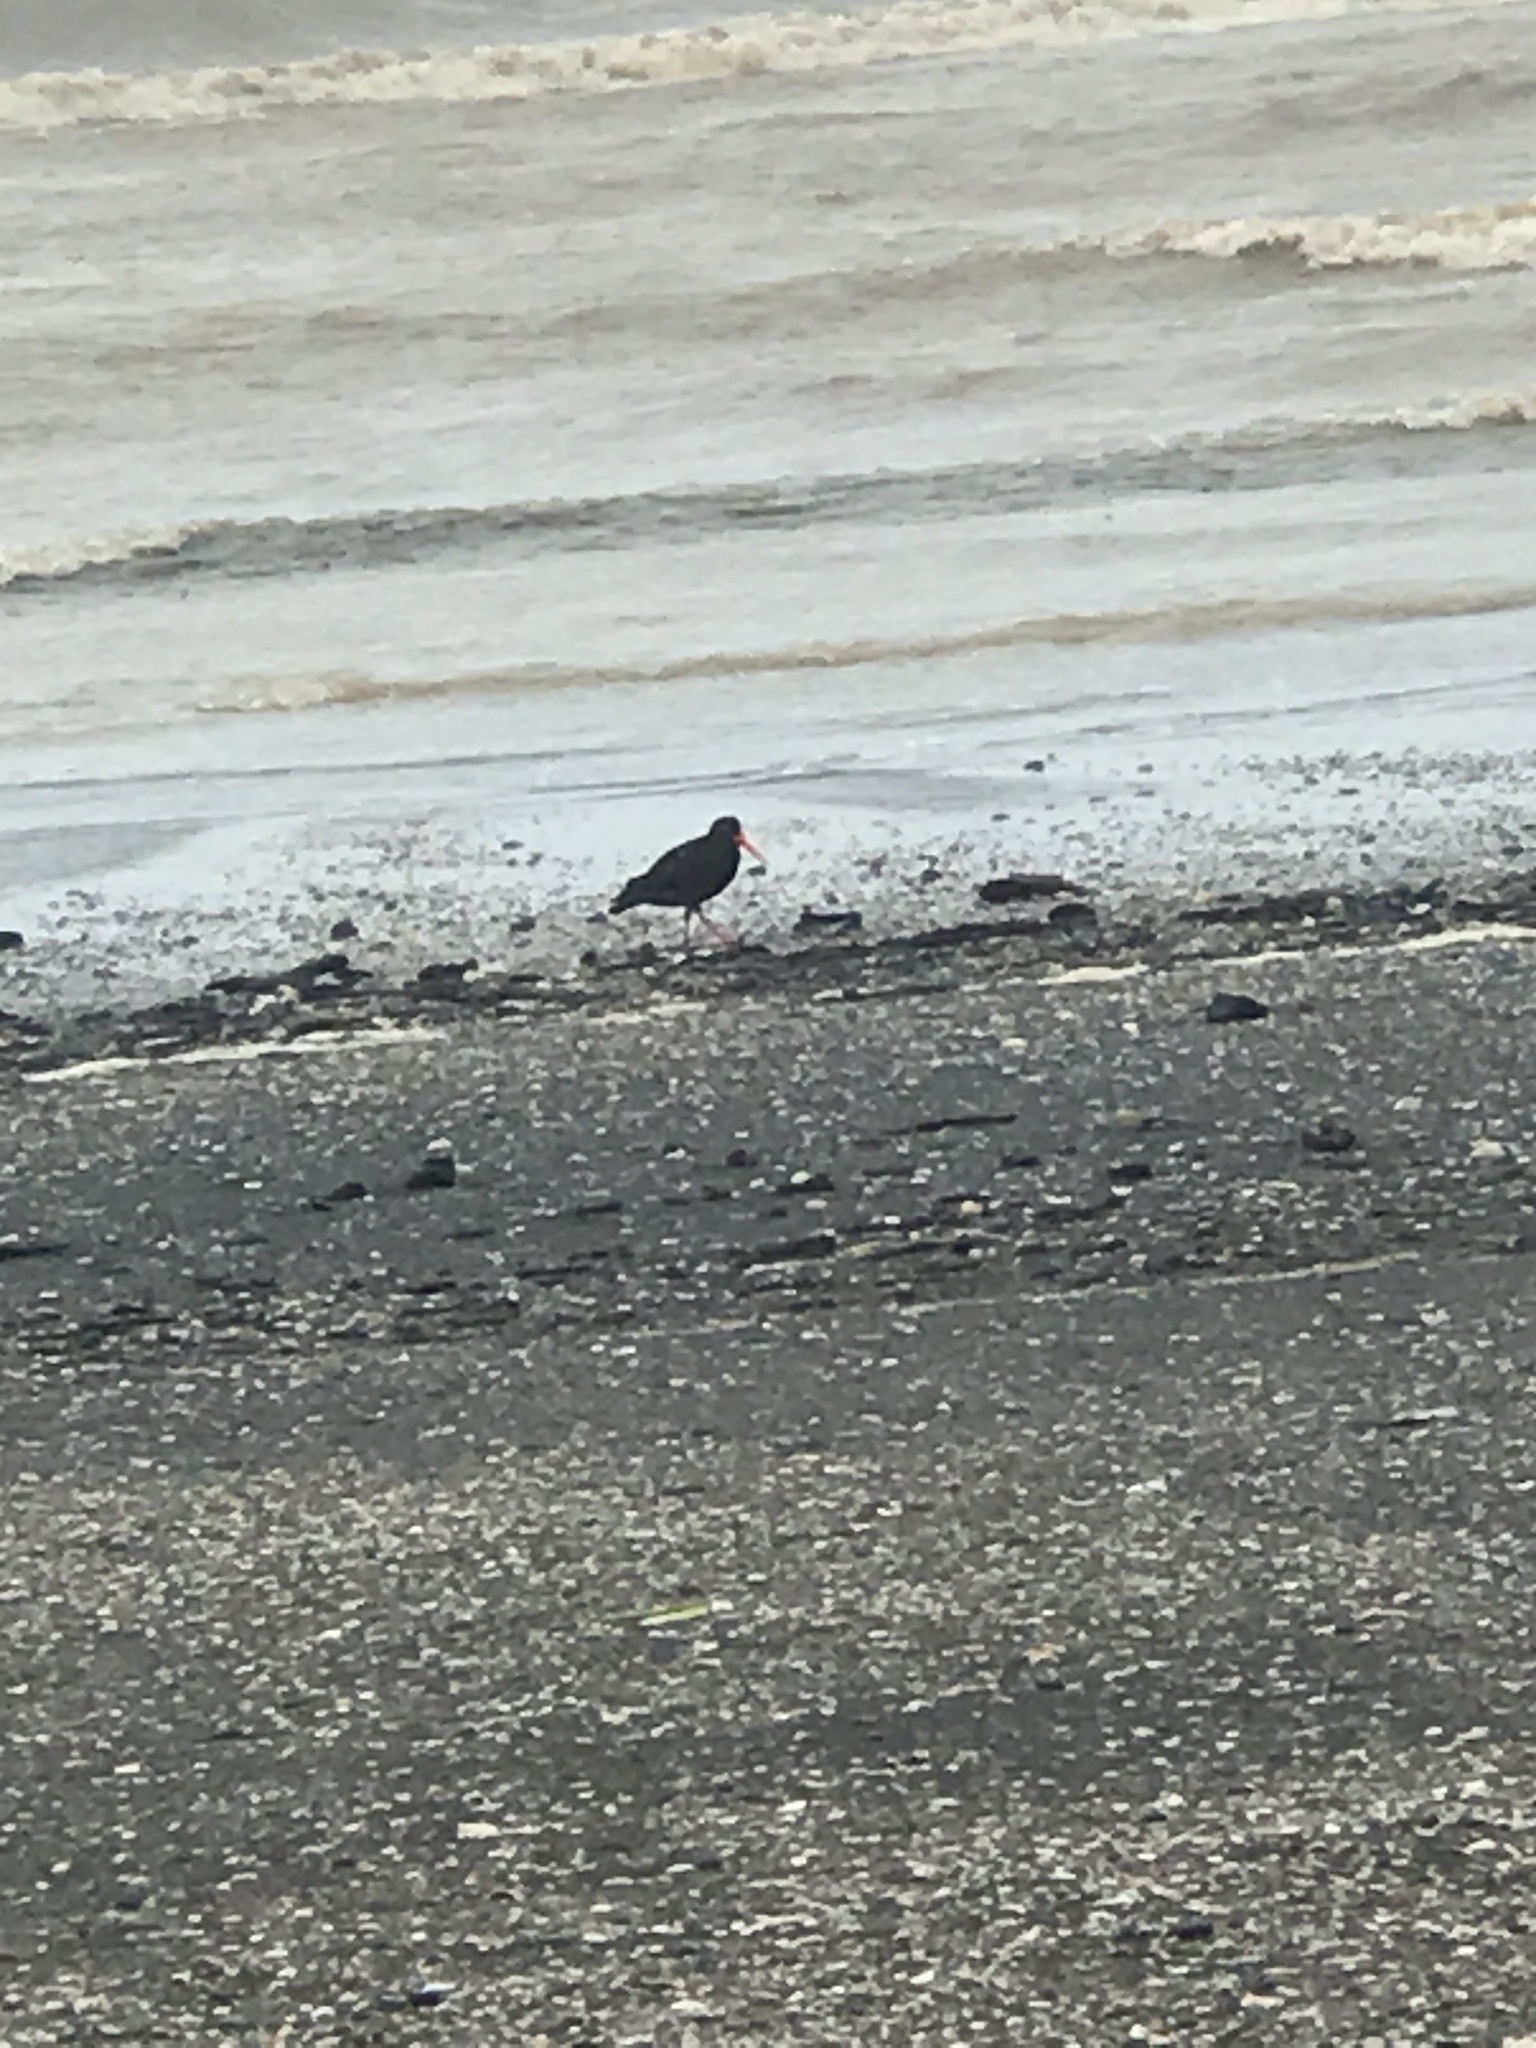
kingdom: Animalia
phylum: Chordata
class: Aves
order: Charadriiformes
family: Haematopodidae
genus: Haematopus
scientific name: Haematopus unicolor
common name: Variable oystercatcher
